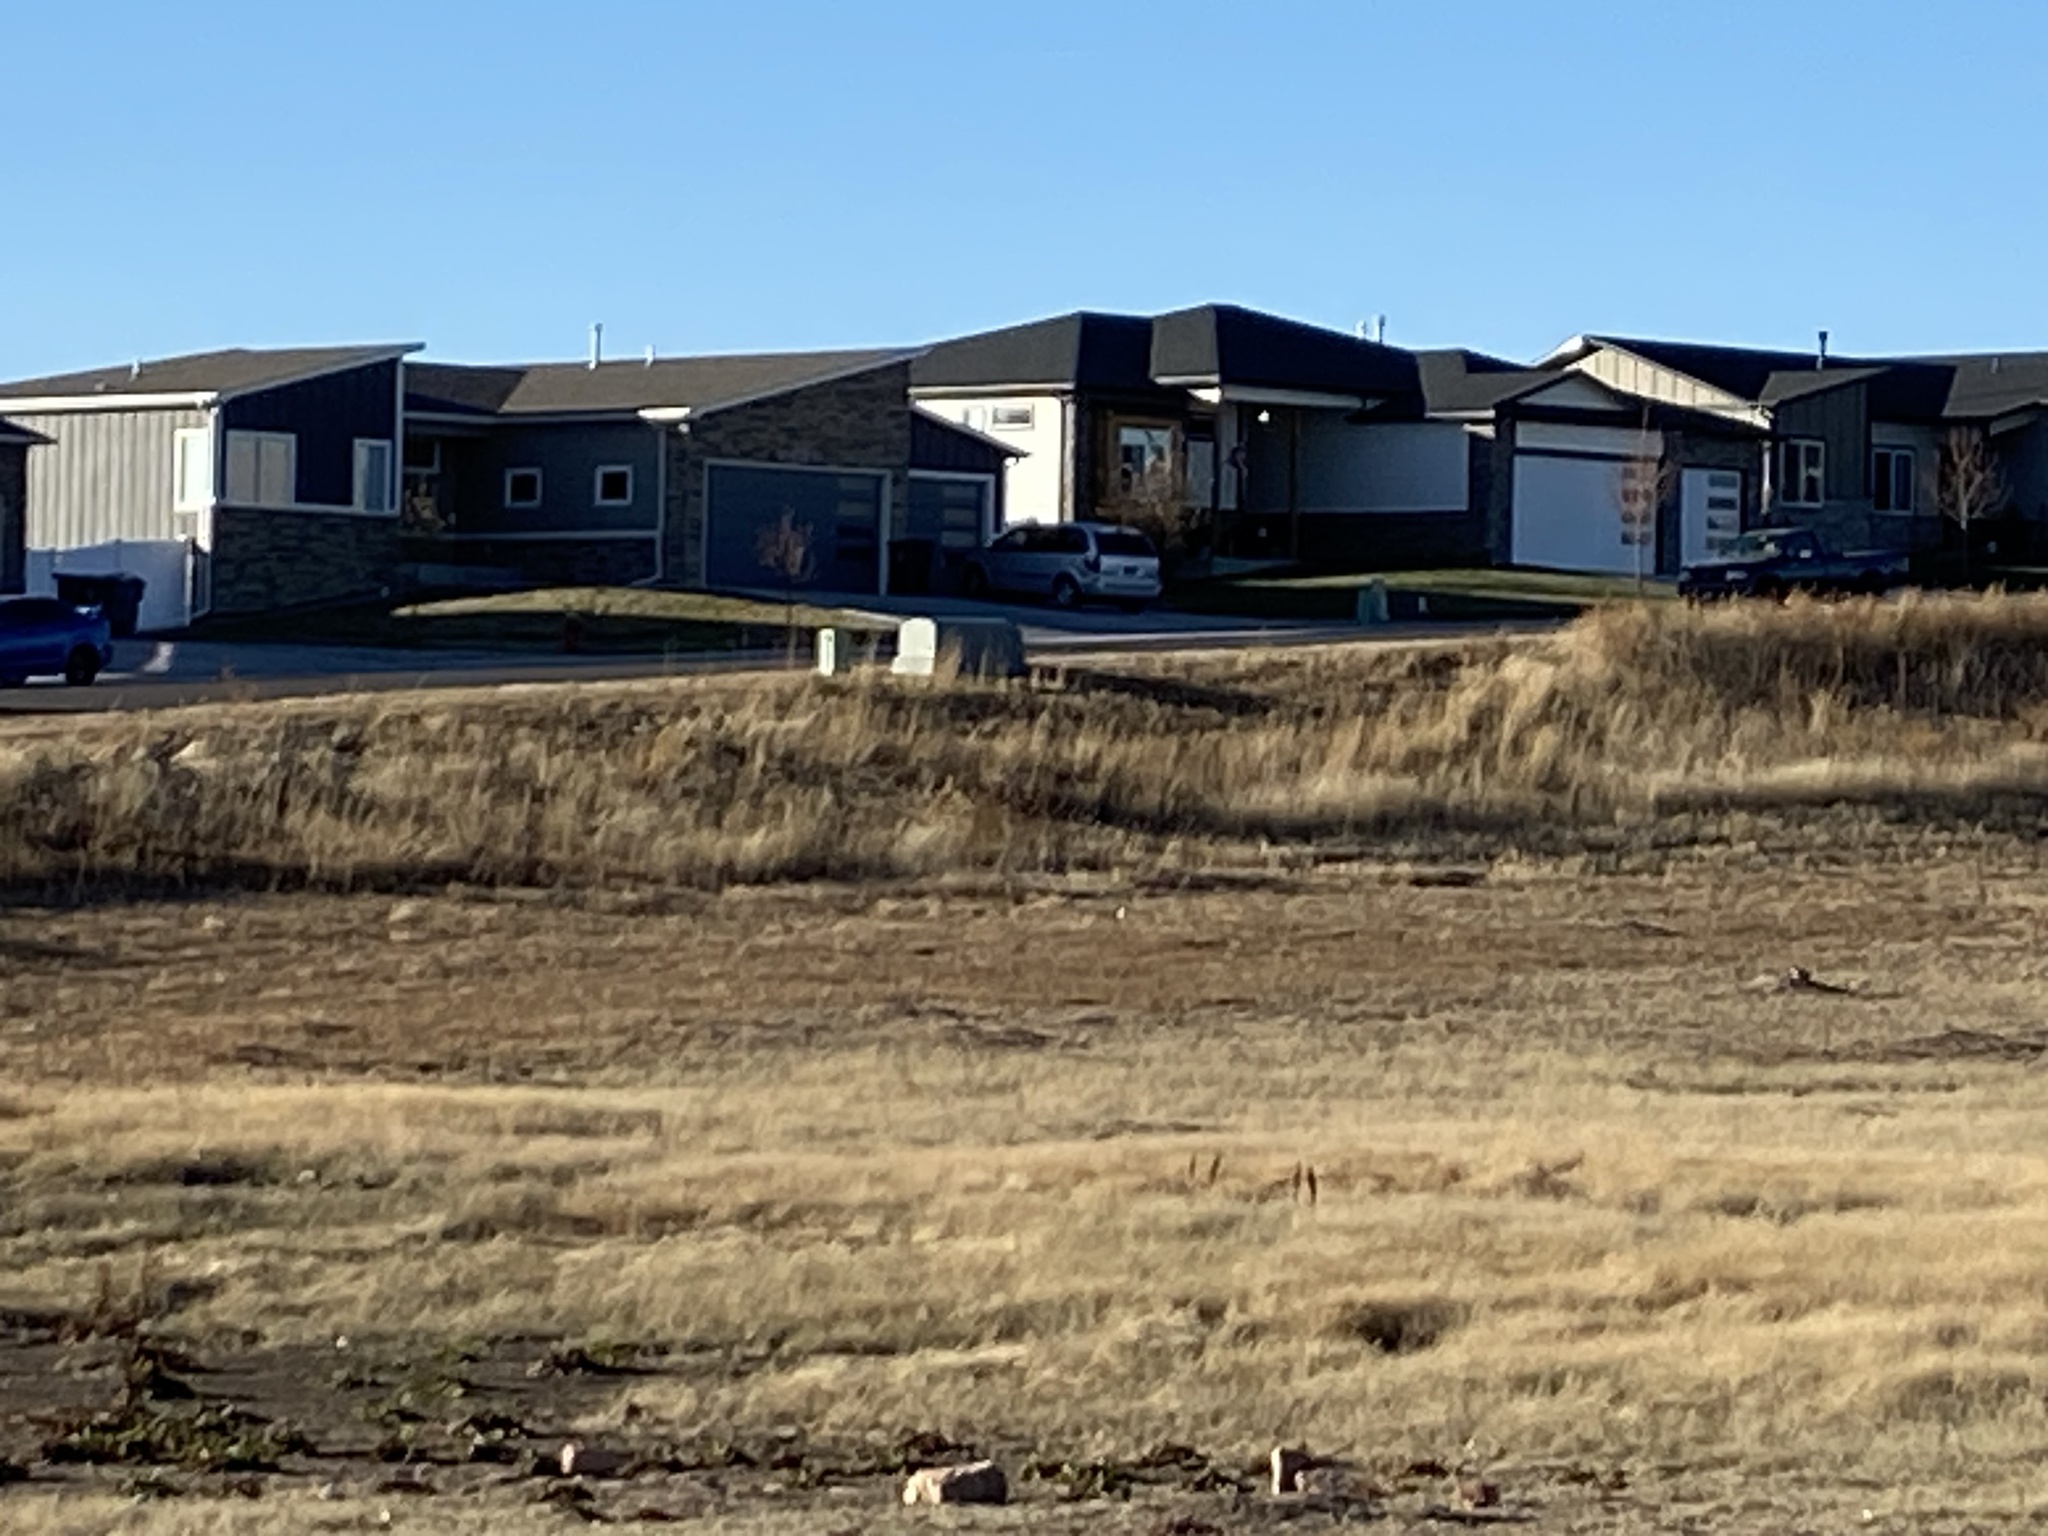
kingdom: Animalia
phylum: Chordata
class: Mammalia
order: Rodentia
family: Sciuridae
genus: Cynomys
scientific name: Cynomys ludovicianus
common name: Black-tailed prairie dog
